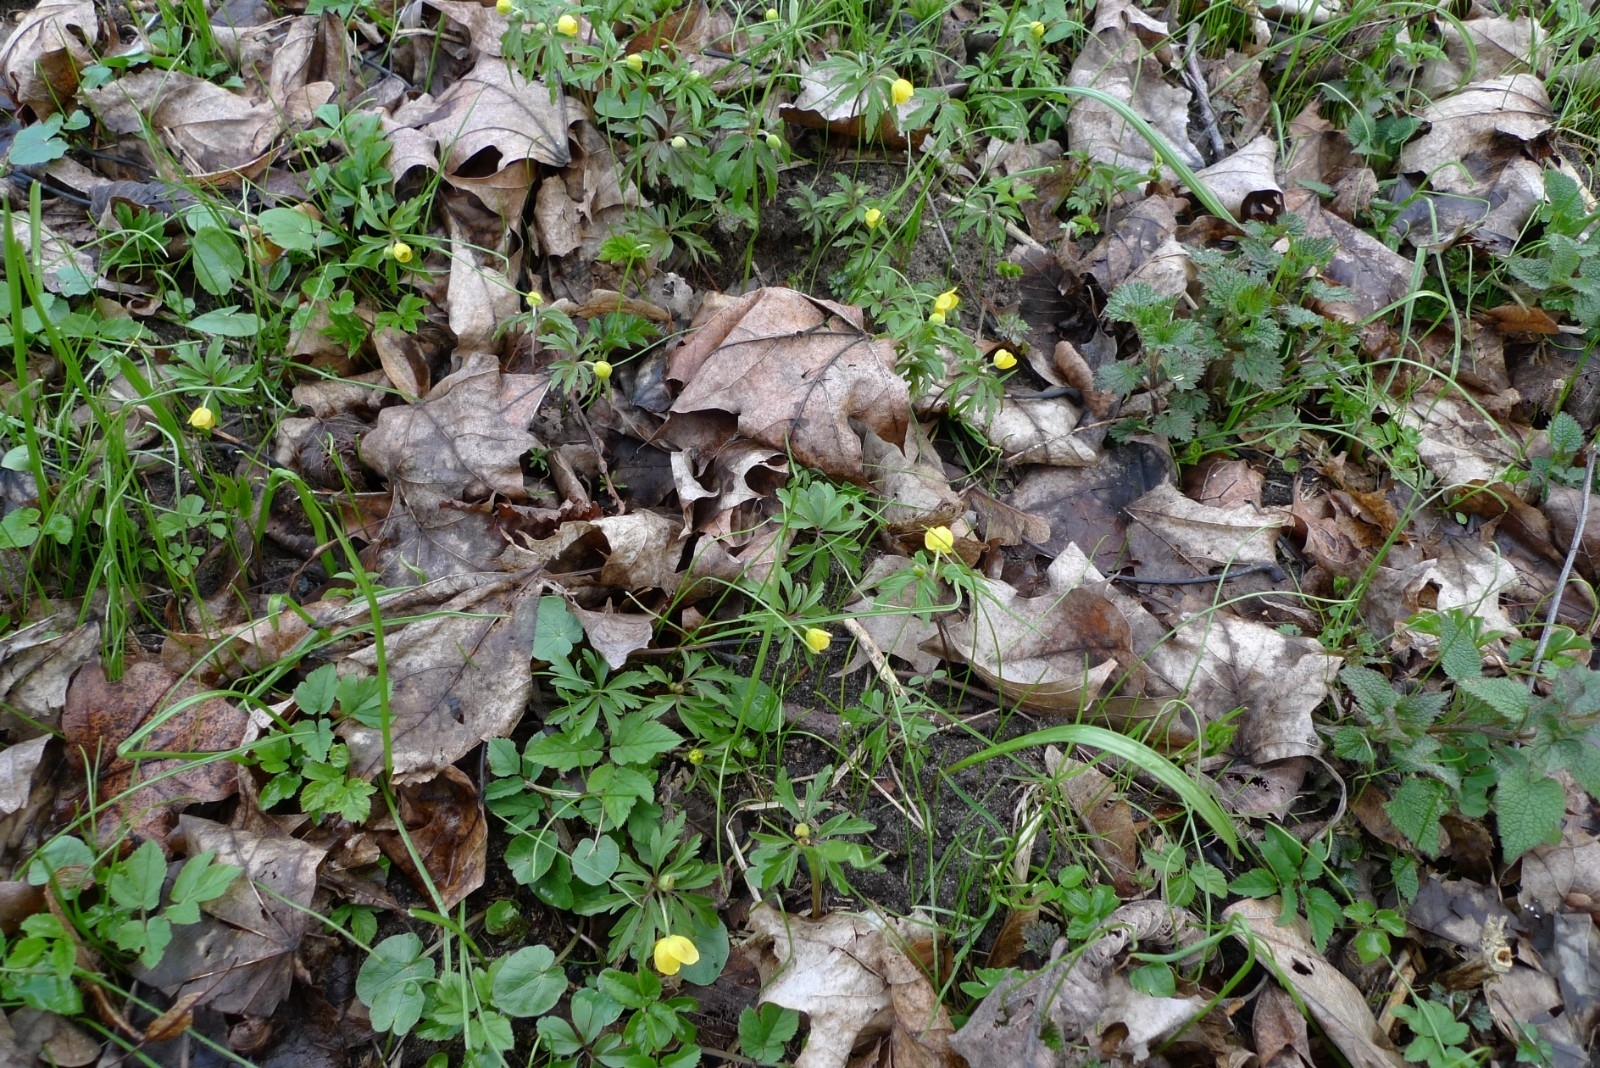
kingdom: Plantae
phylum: Tracheophyta
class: Magnoliopsida
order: Ranunculales
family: Ranunculaceae
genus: Anemone
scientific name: Anemone ranunculoides
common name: Yellow anemone
